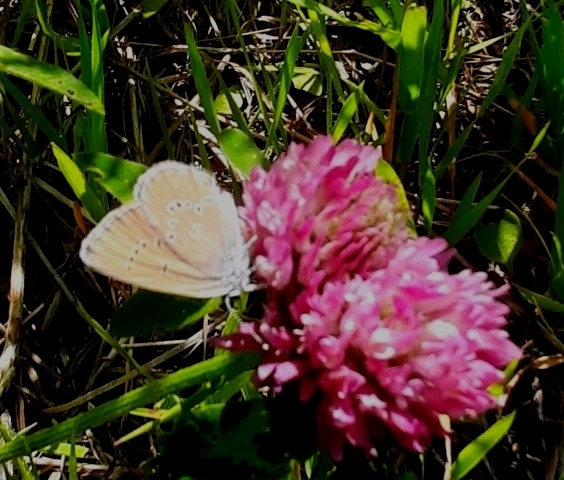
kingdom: Animalia
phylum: Arthropoda
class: Insecta
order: Lepidoptera
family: Lycaenidae
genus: Cyaniris
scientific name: Cyaniris semiargus
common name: Mazarine blue
